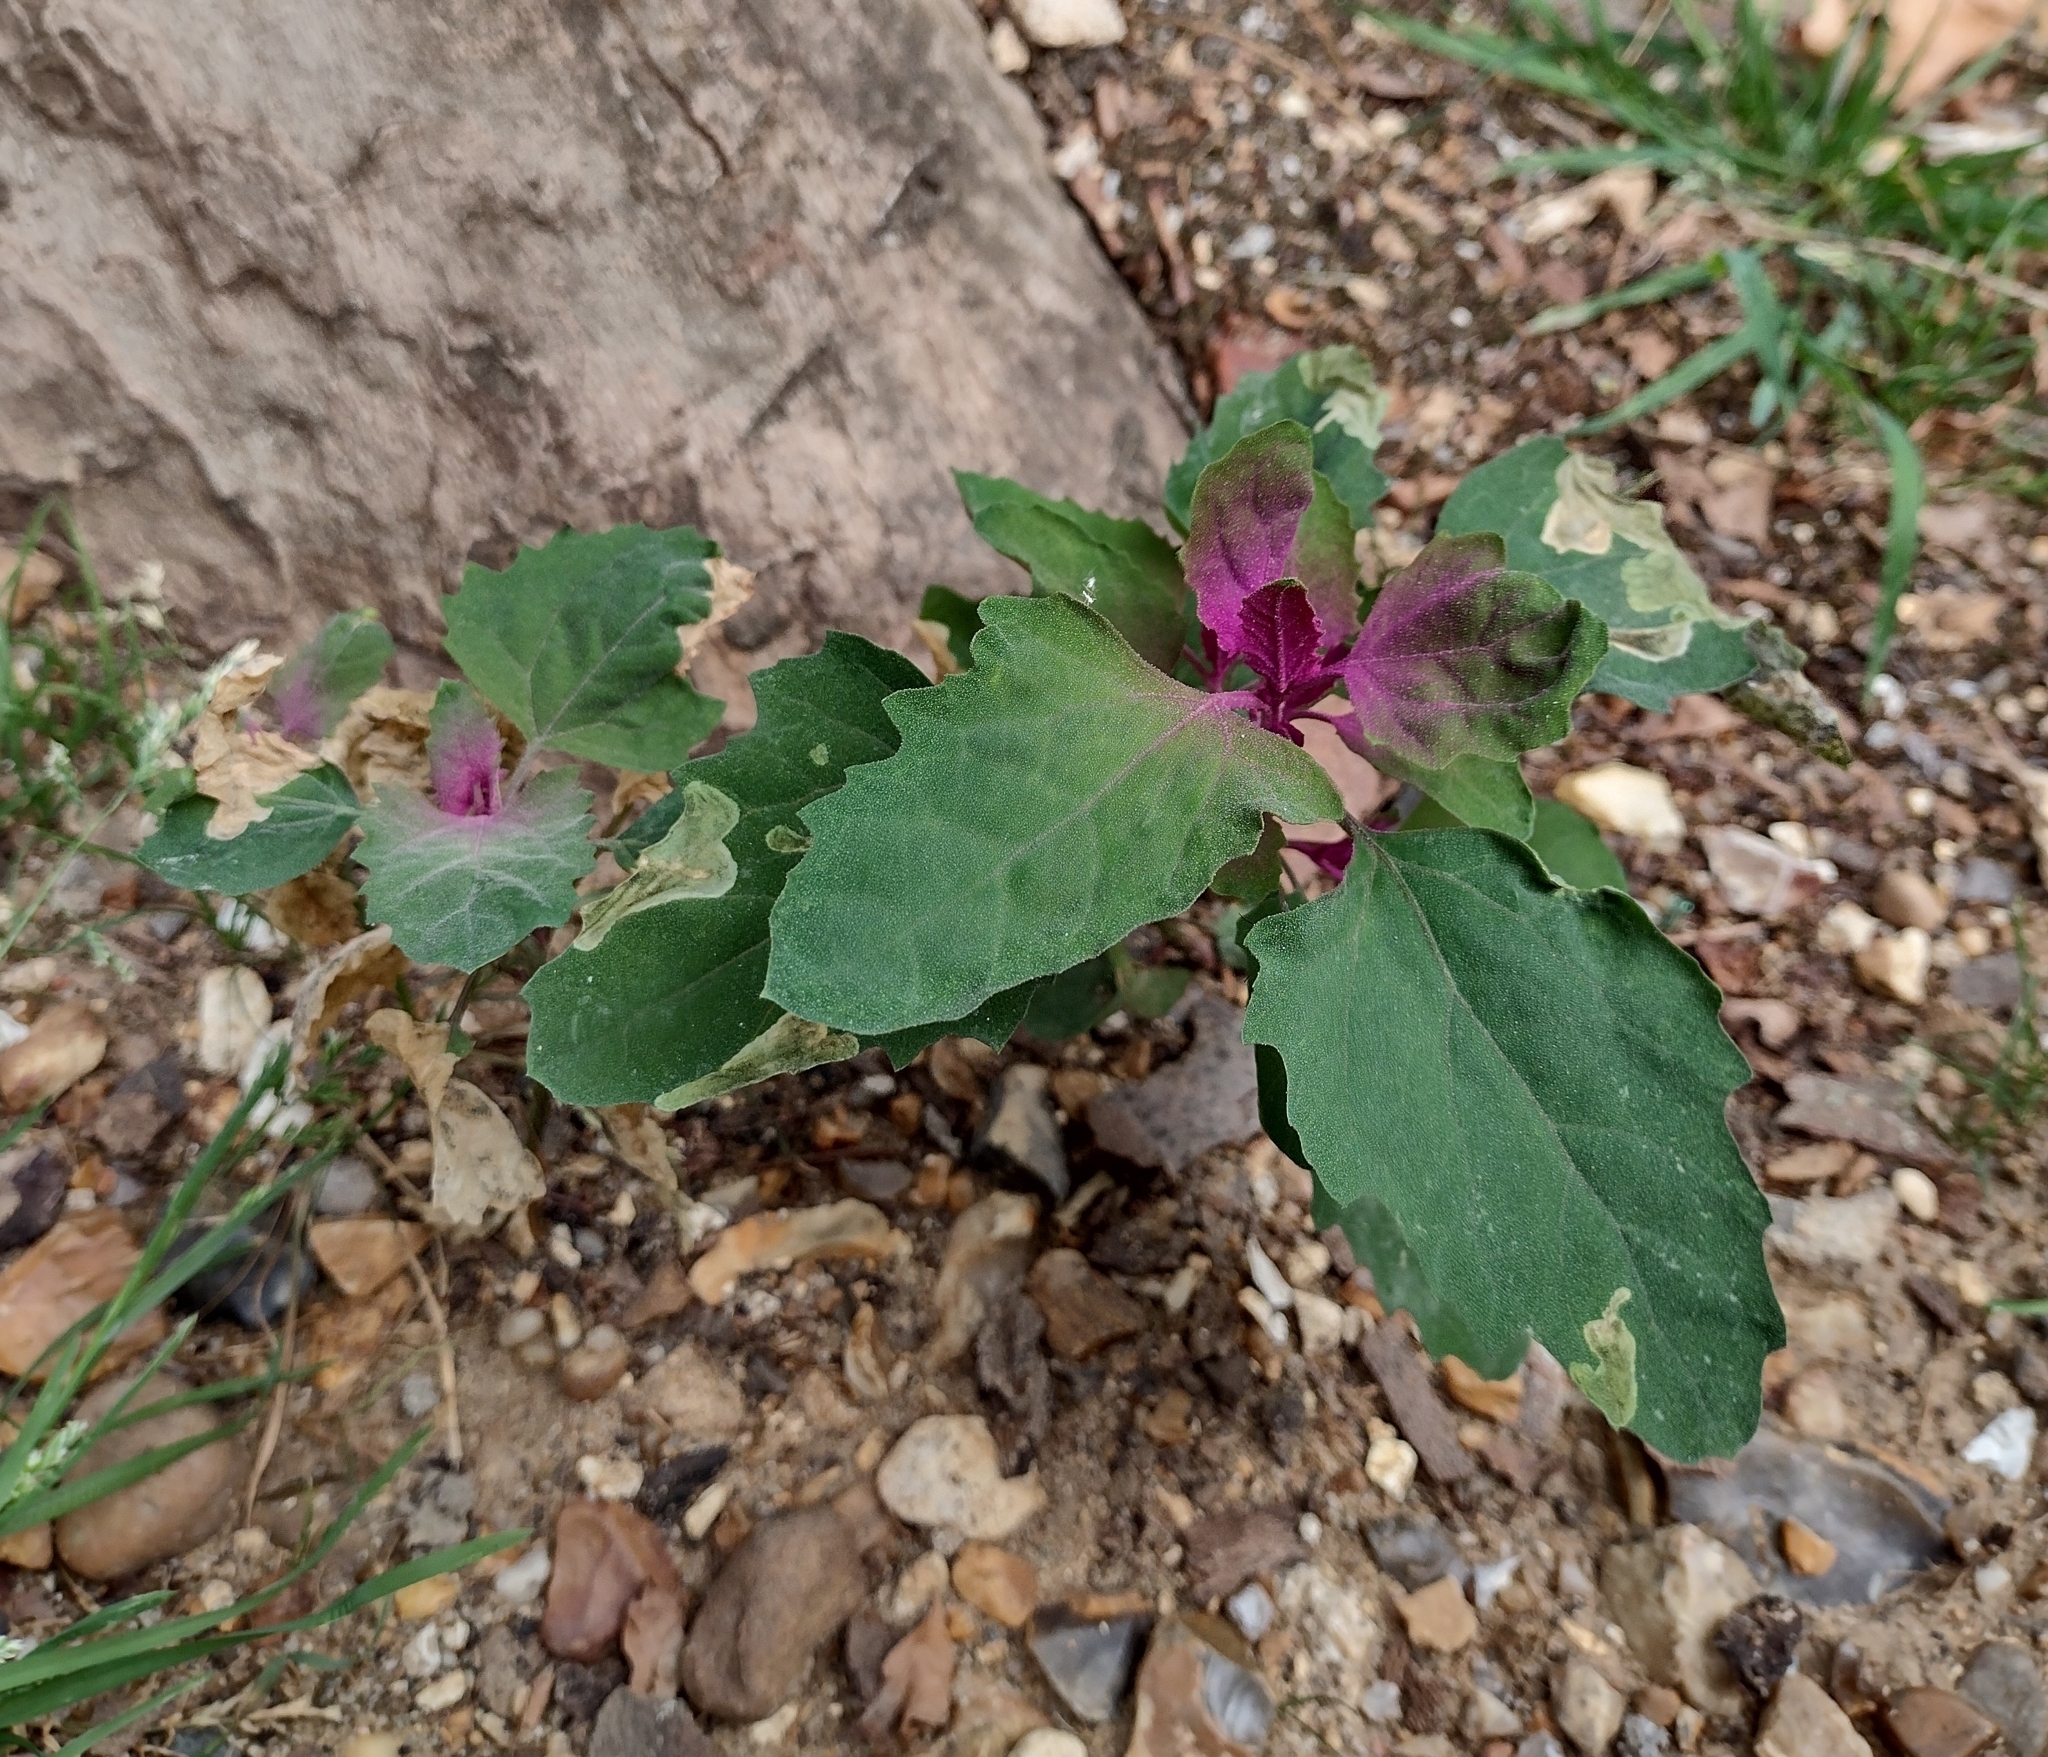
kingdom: Plantae
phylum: Tracheophyta
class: Magnoliopsida
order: Caryophyllales
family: Amaranthaceae
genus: Chenopodium
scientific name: Chenopodium giganteum
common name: Magentaspreen
